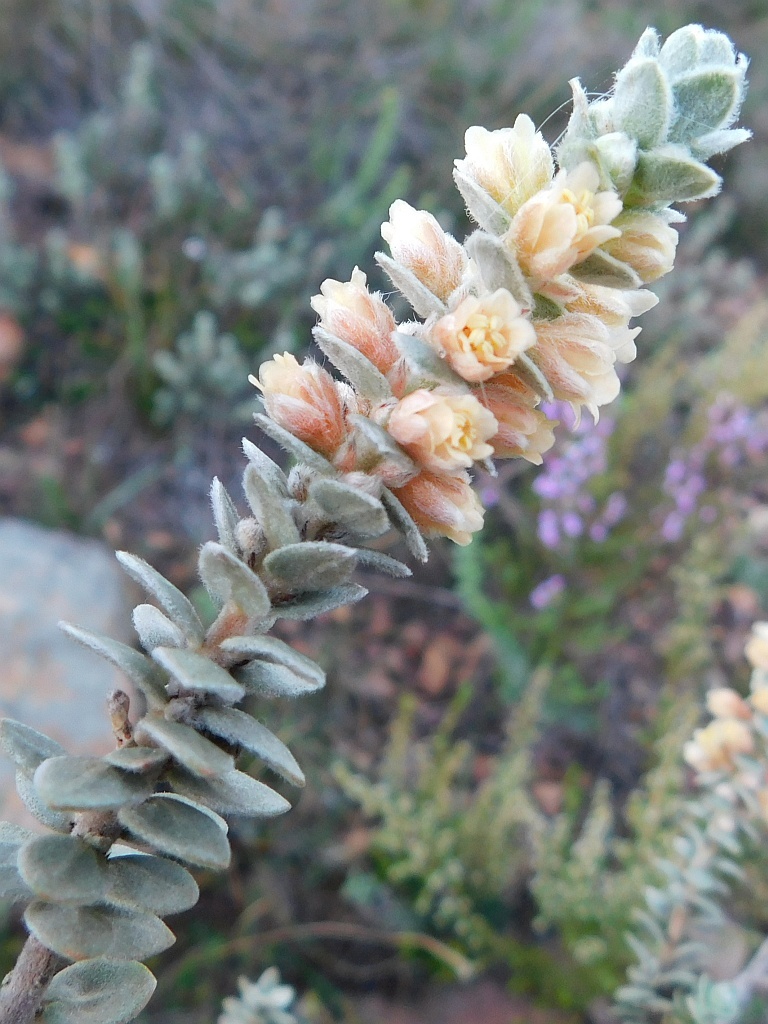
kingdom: Plantae
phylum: Tracheophyta
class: Magnoliopsida
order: Malpighiales
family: Peraceae
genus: Clutia
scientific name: Clutia tomentosa
